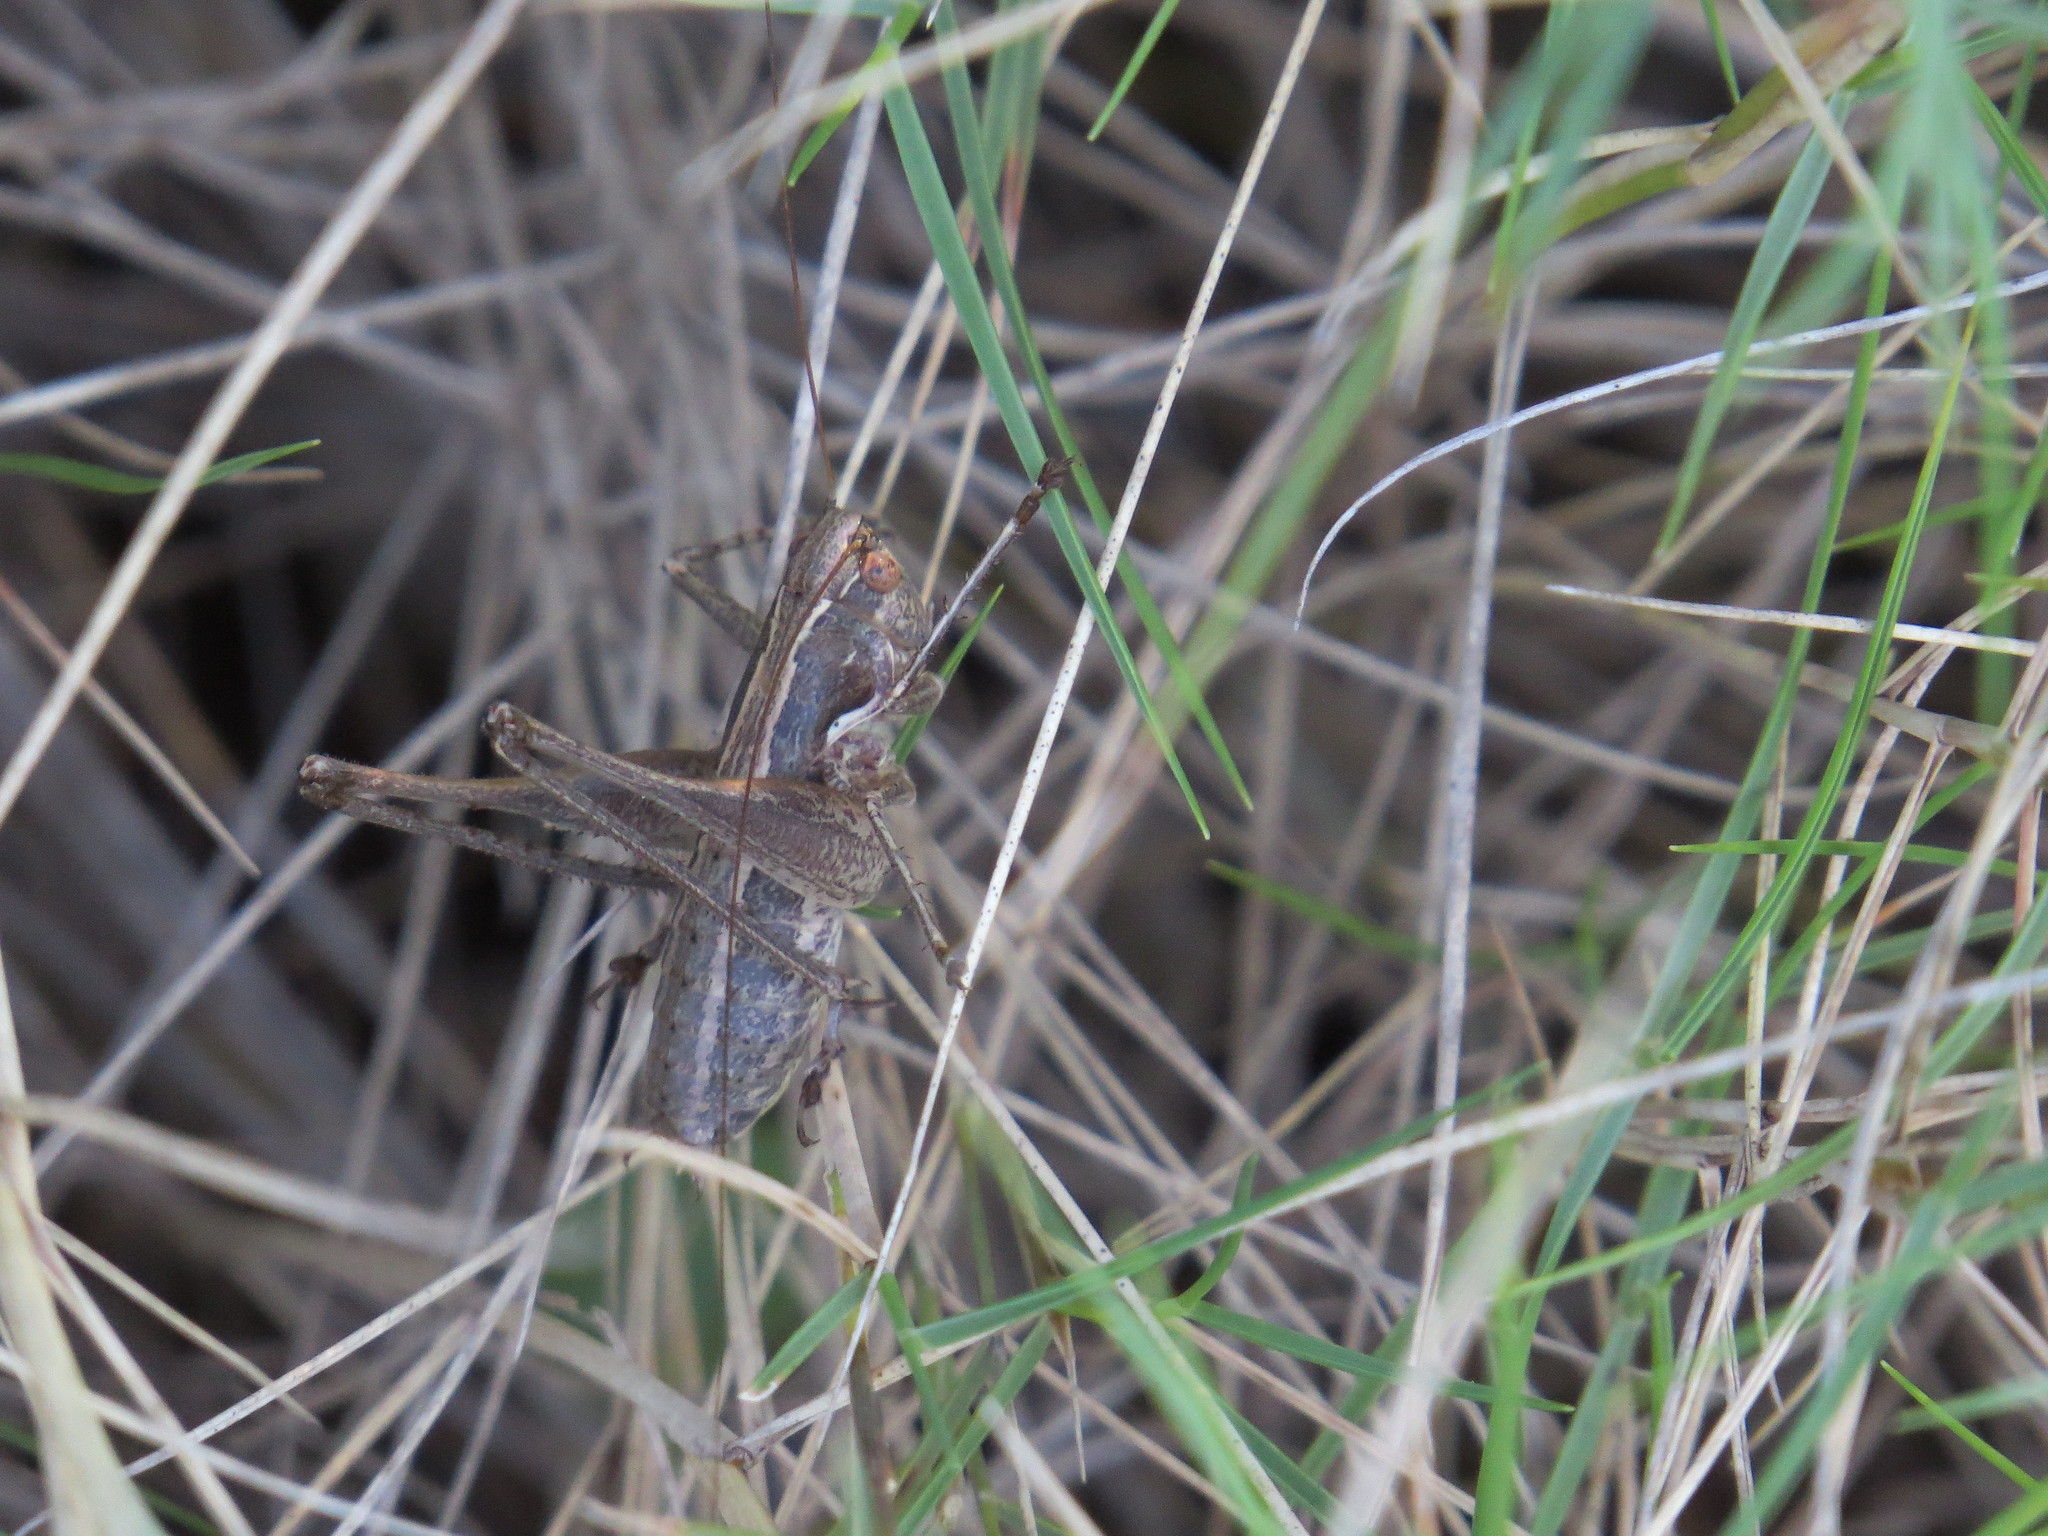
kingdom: Animalia
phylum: Arthropoda
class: Insecta
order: Orthoptera
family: Tettigoniidae
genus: Rhacocleis
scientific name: Rhacocleis germanica
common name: Mediterranean bush-cricket
